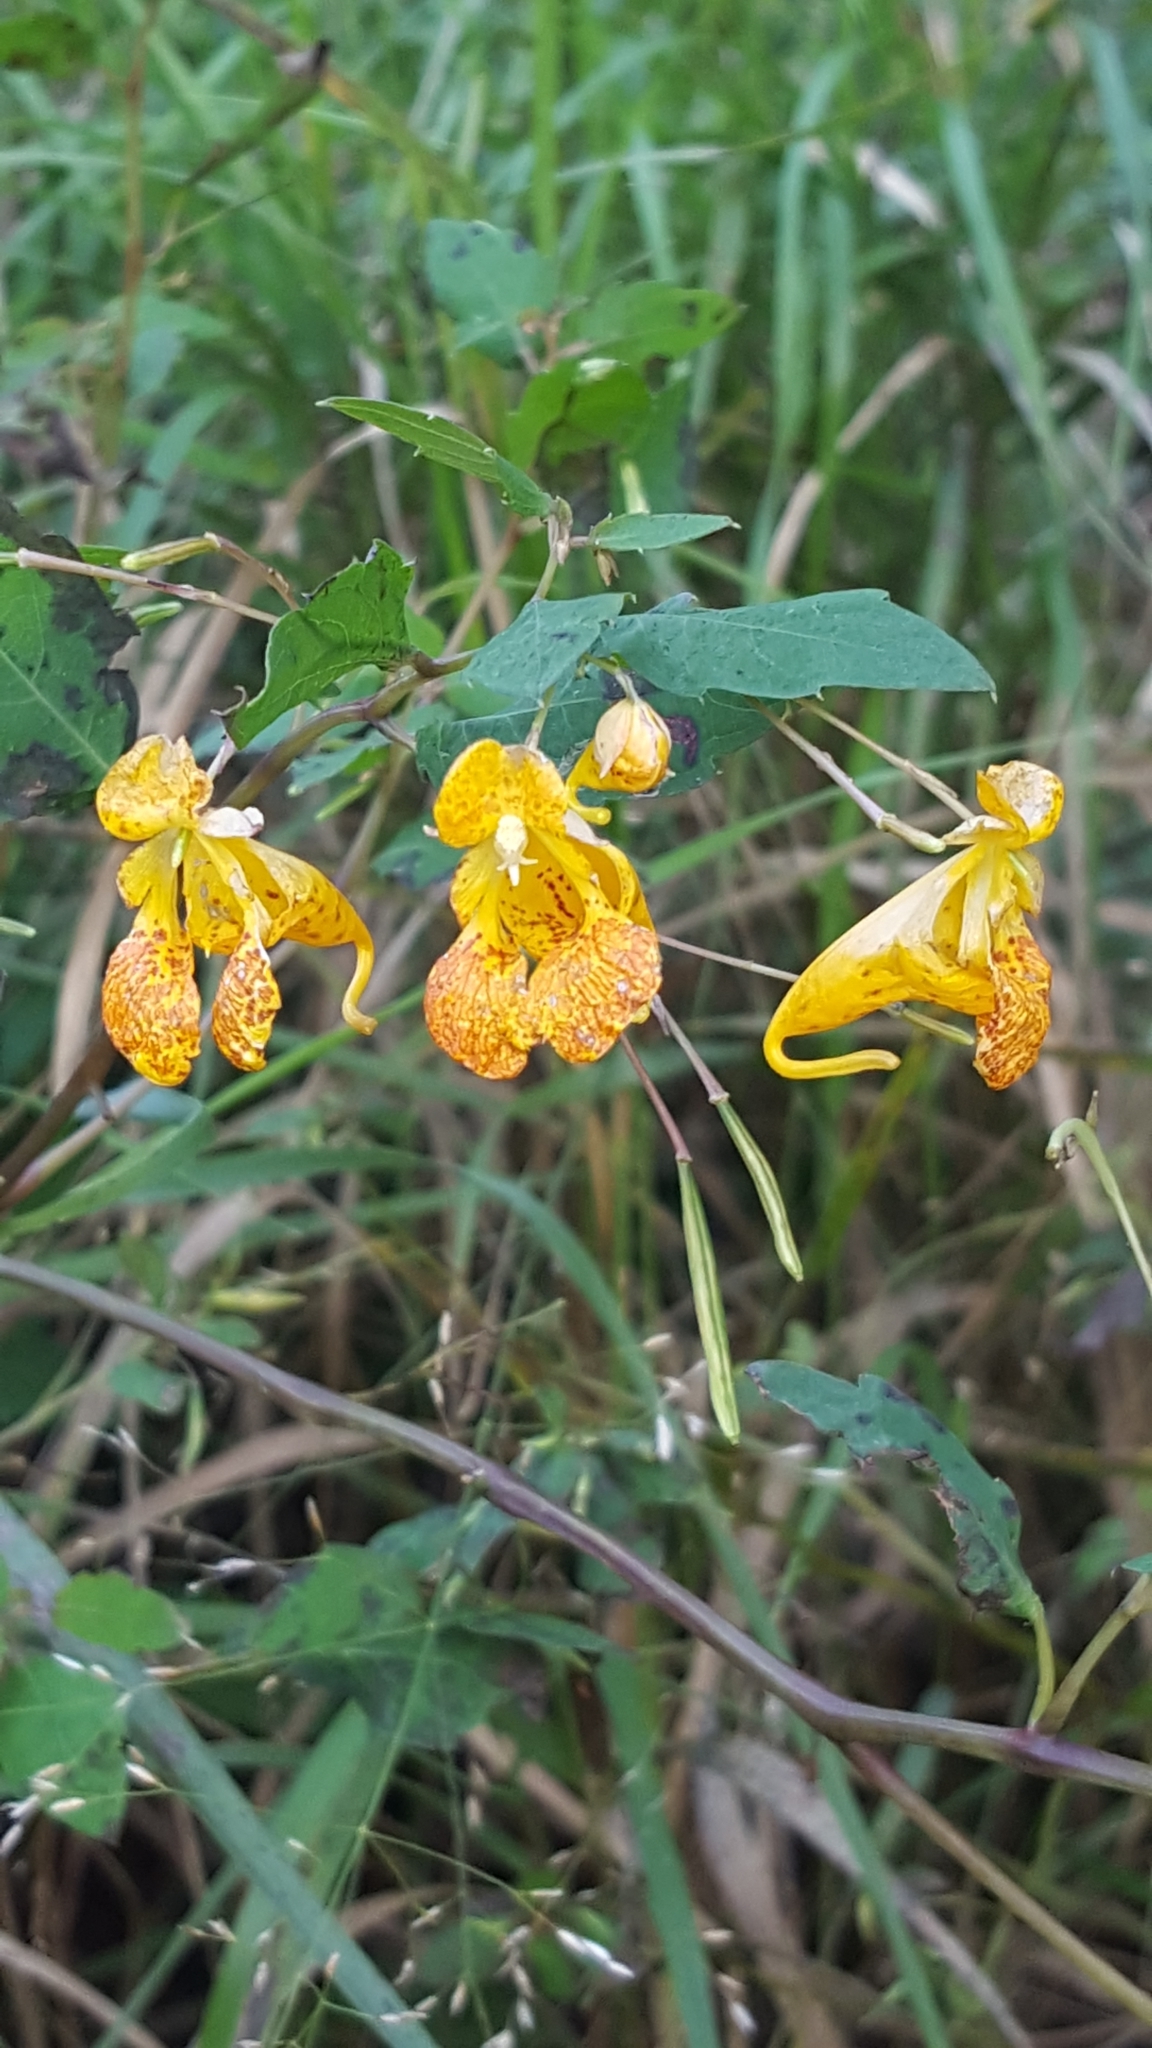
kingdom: Plantae
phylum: Tracheophyta
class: Magnoliopsida
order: Ericales
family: Balsaminaceae
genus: Impatiens
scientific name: Impatiens capensis
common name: Orange balsam
